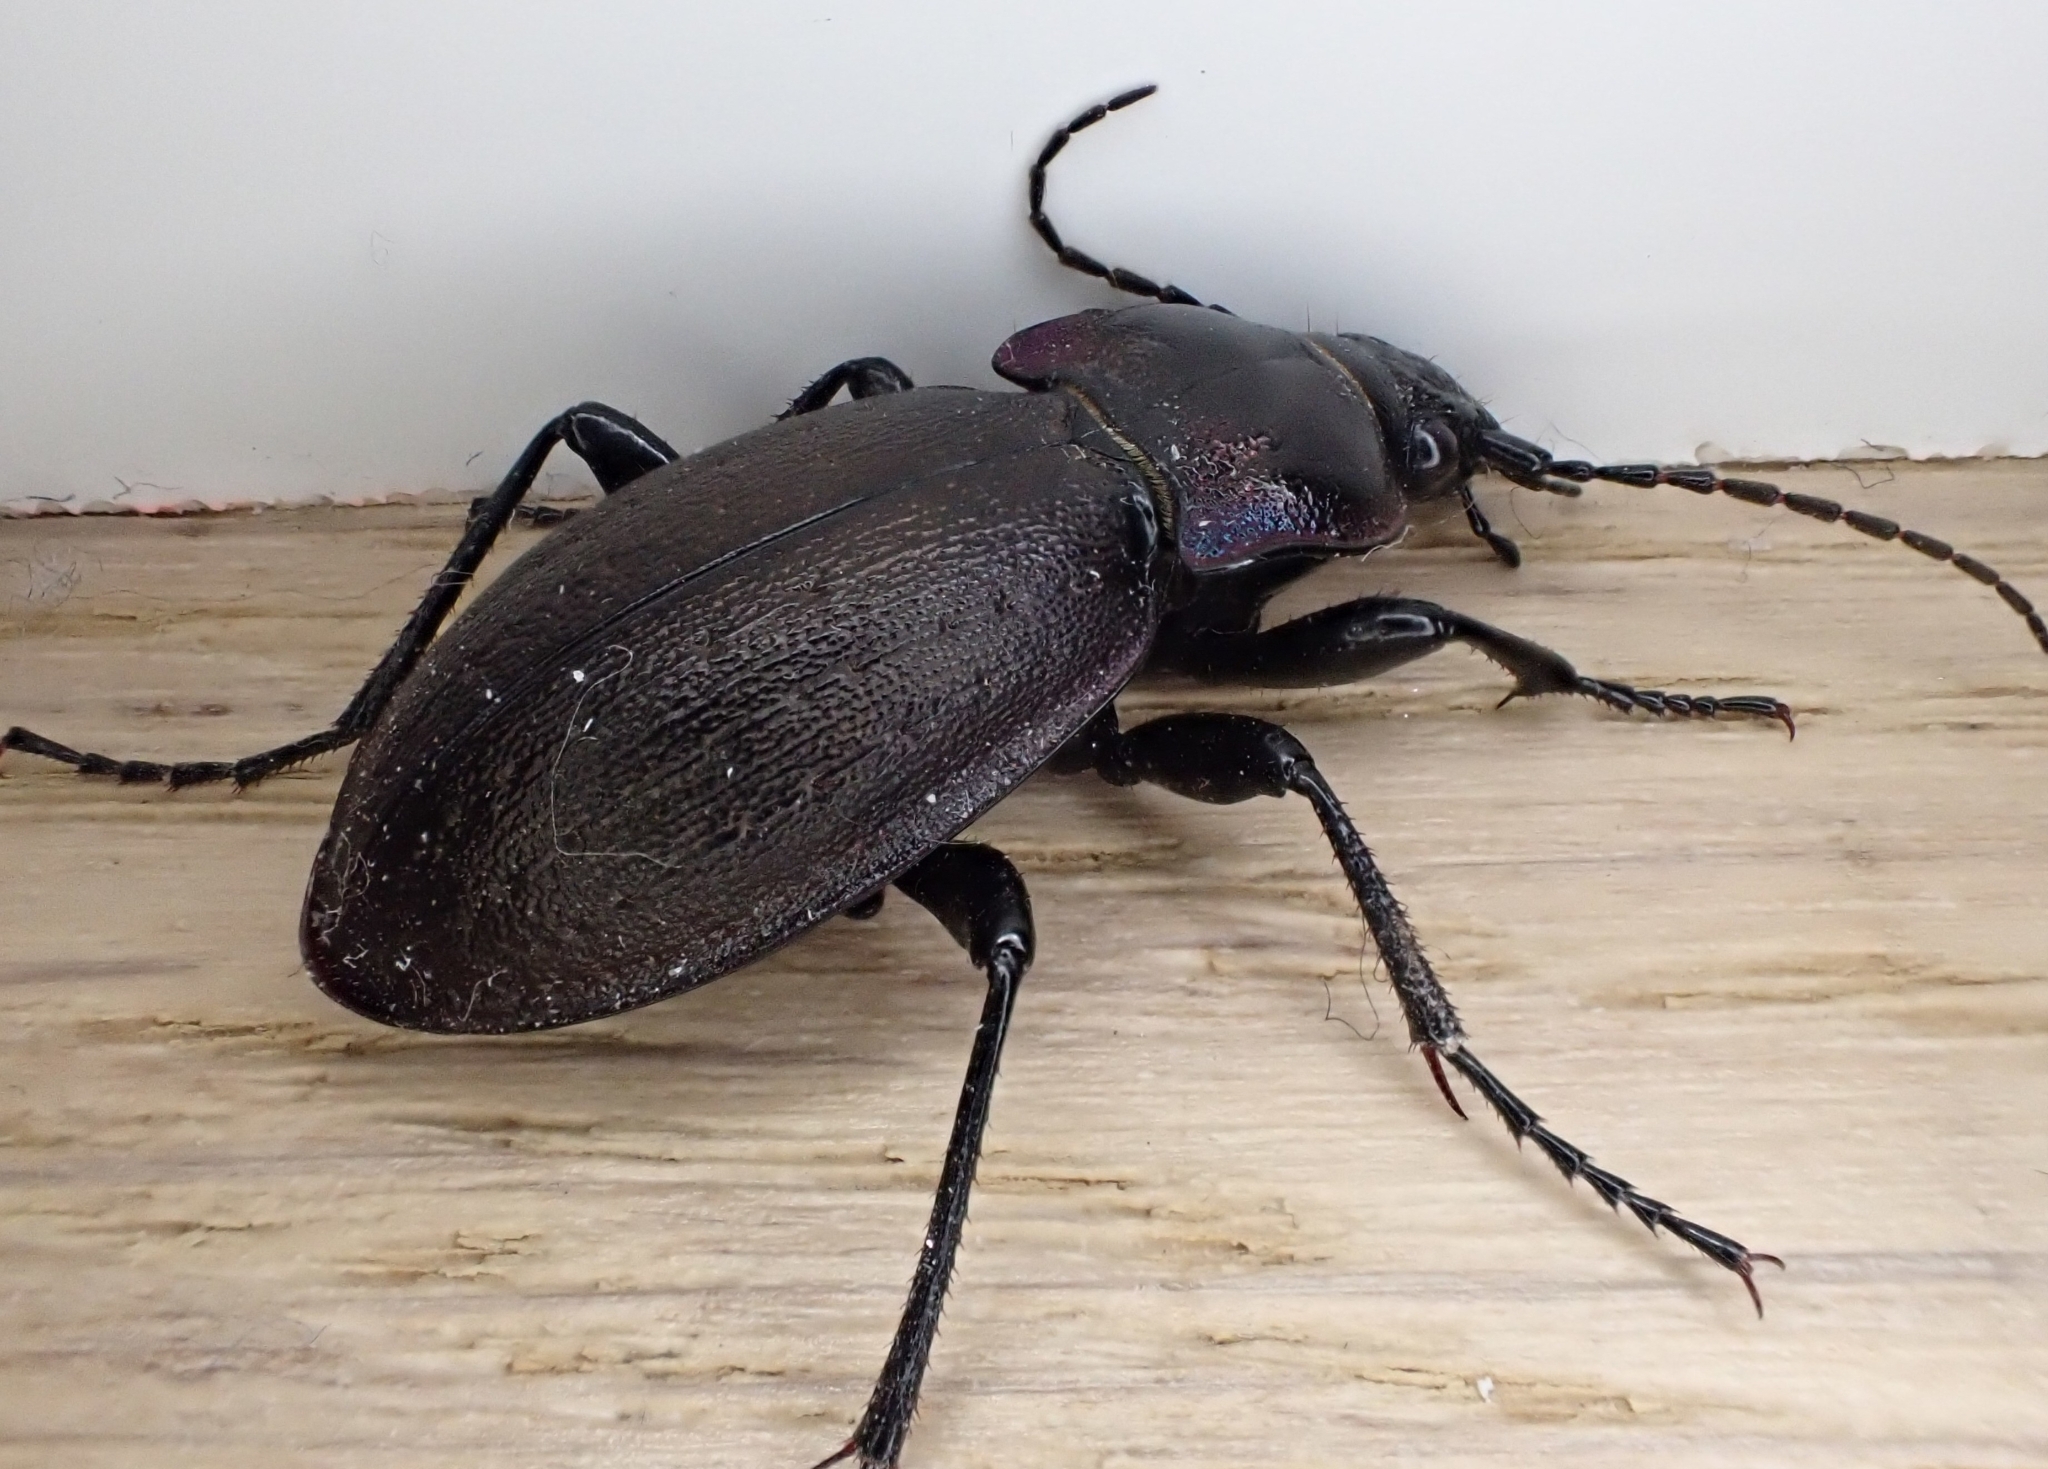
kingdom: Animalia
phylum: Arthropoda
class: Insecta
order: Coleoptera
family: Carabidae
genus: Carabus
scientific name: Carabus nemoralis
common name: European ground beetle
